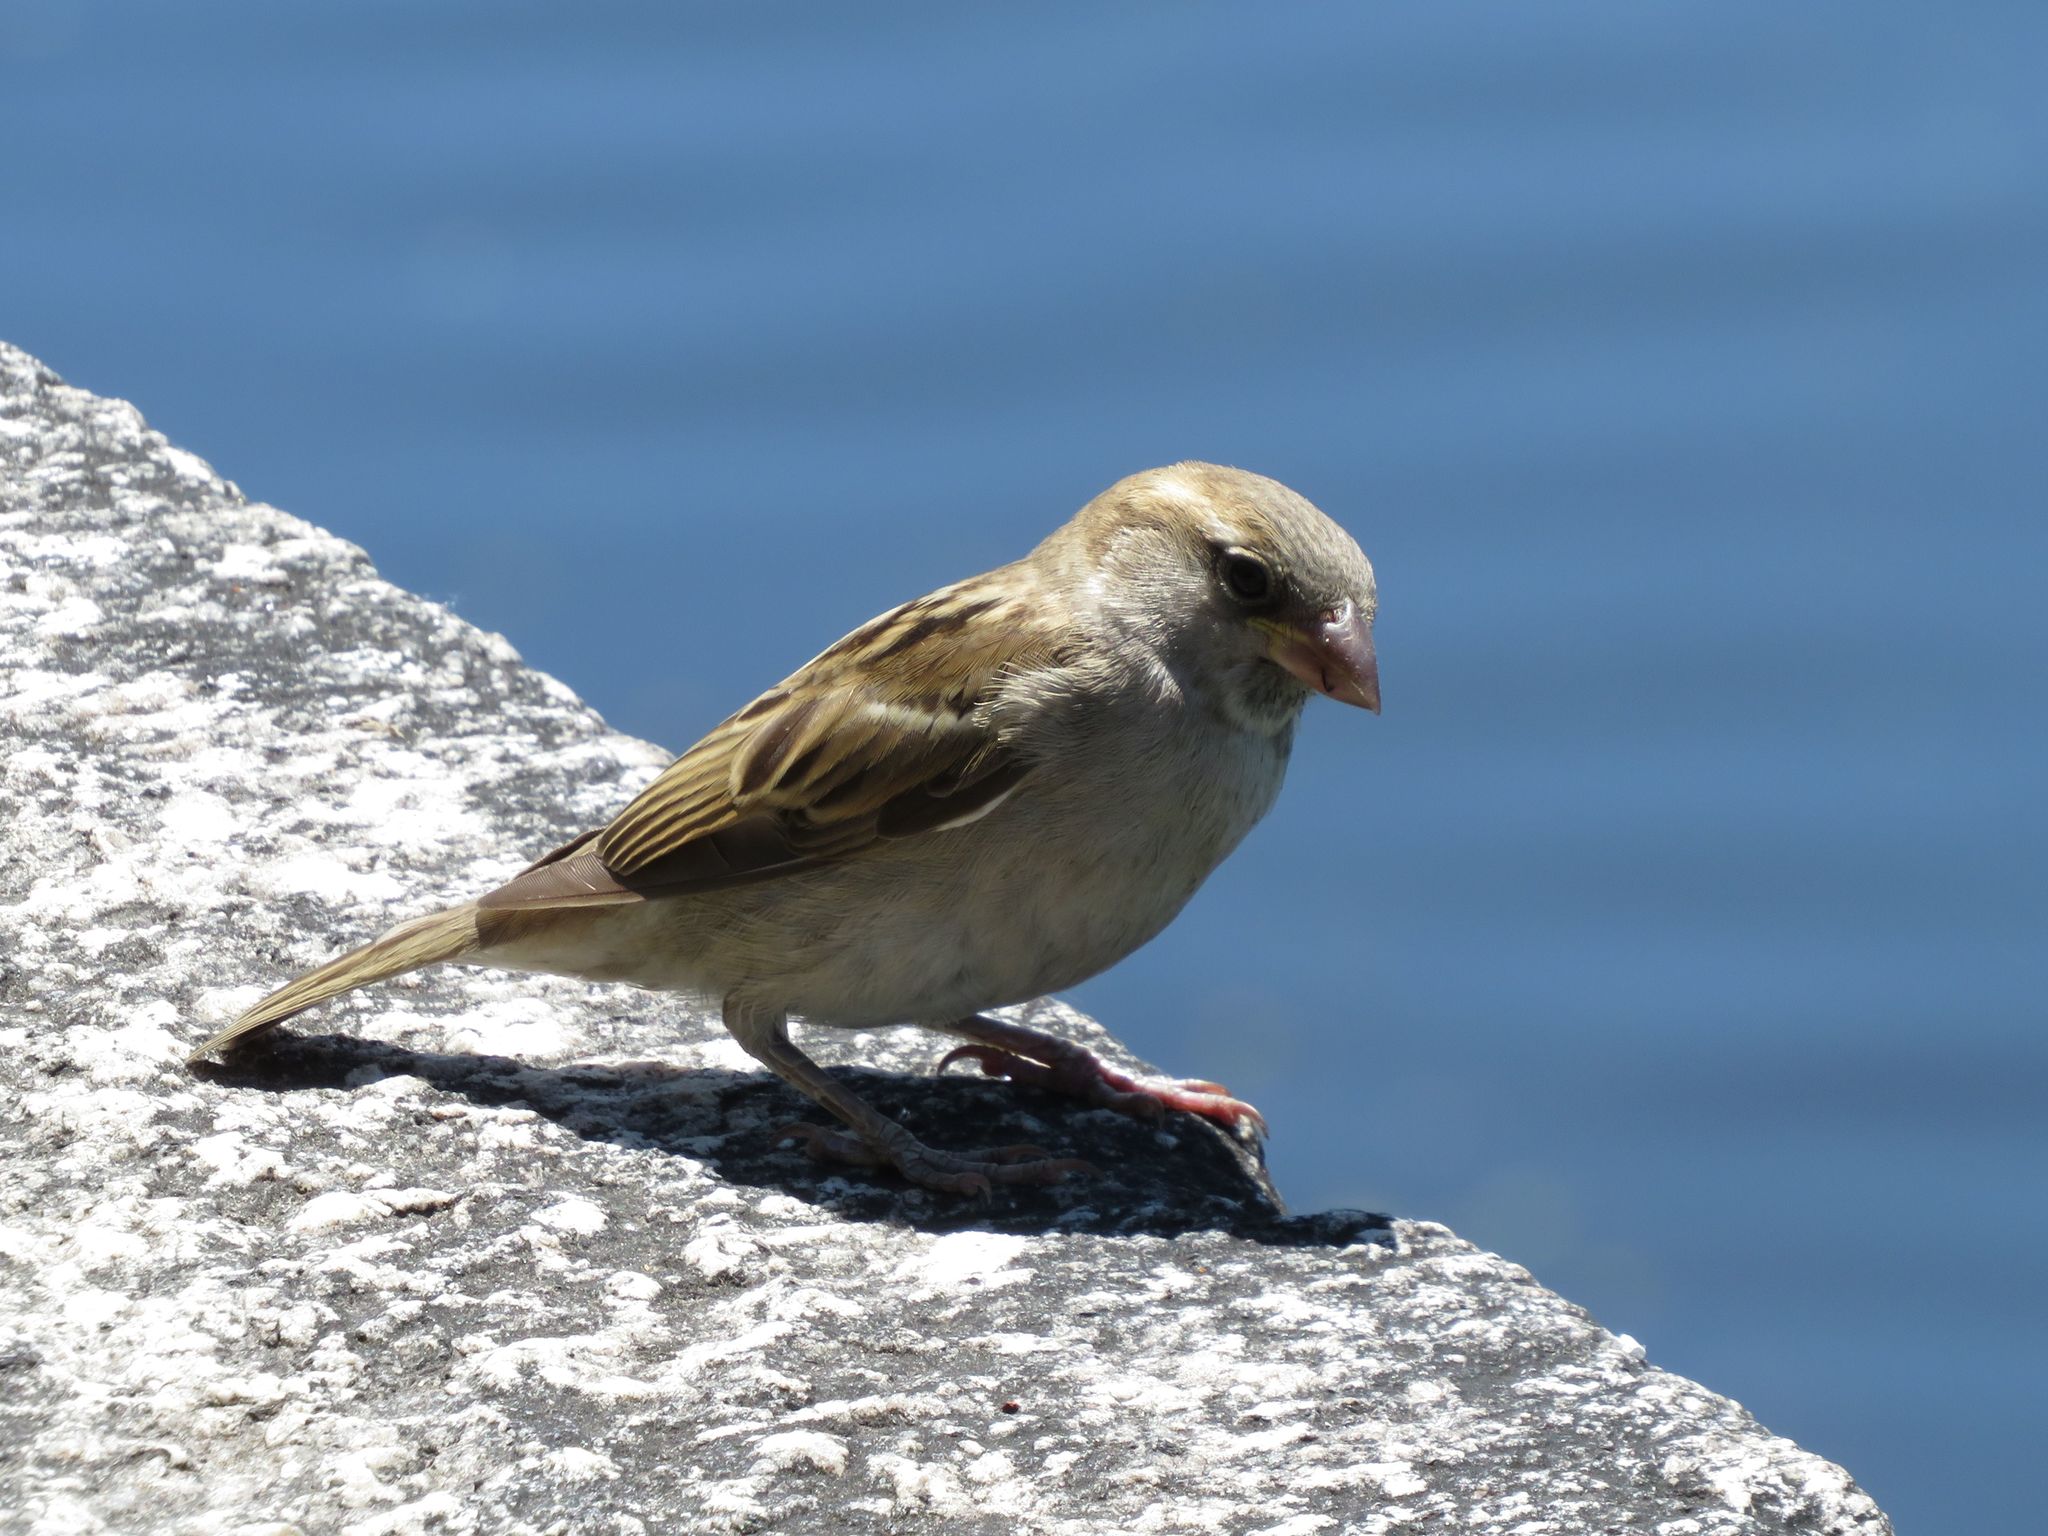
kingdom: Animalia
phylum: Chordata
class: Aves
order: Passeriformes
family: Passeridae
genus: Passer
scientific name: Passer domesticus
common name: House sparrow
